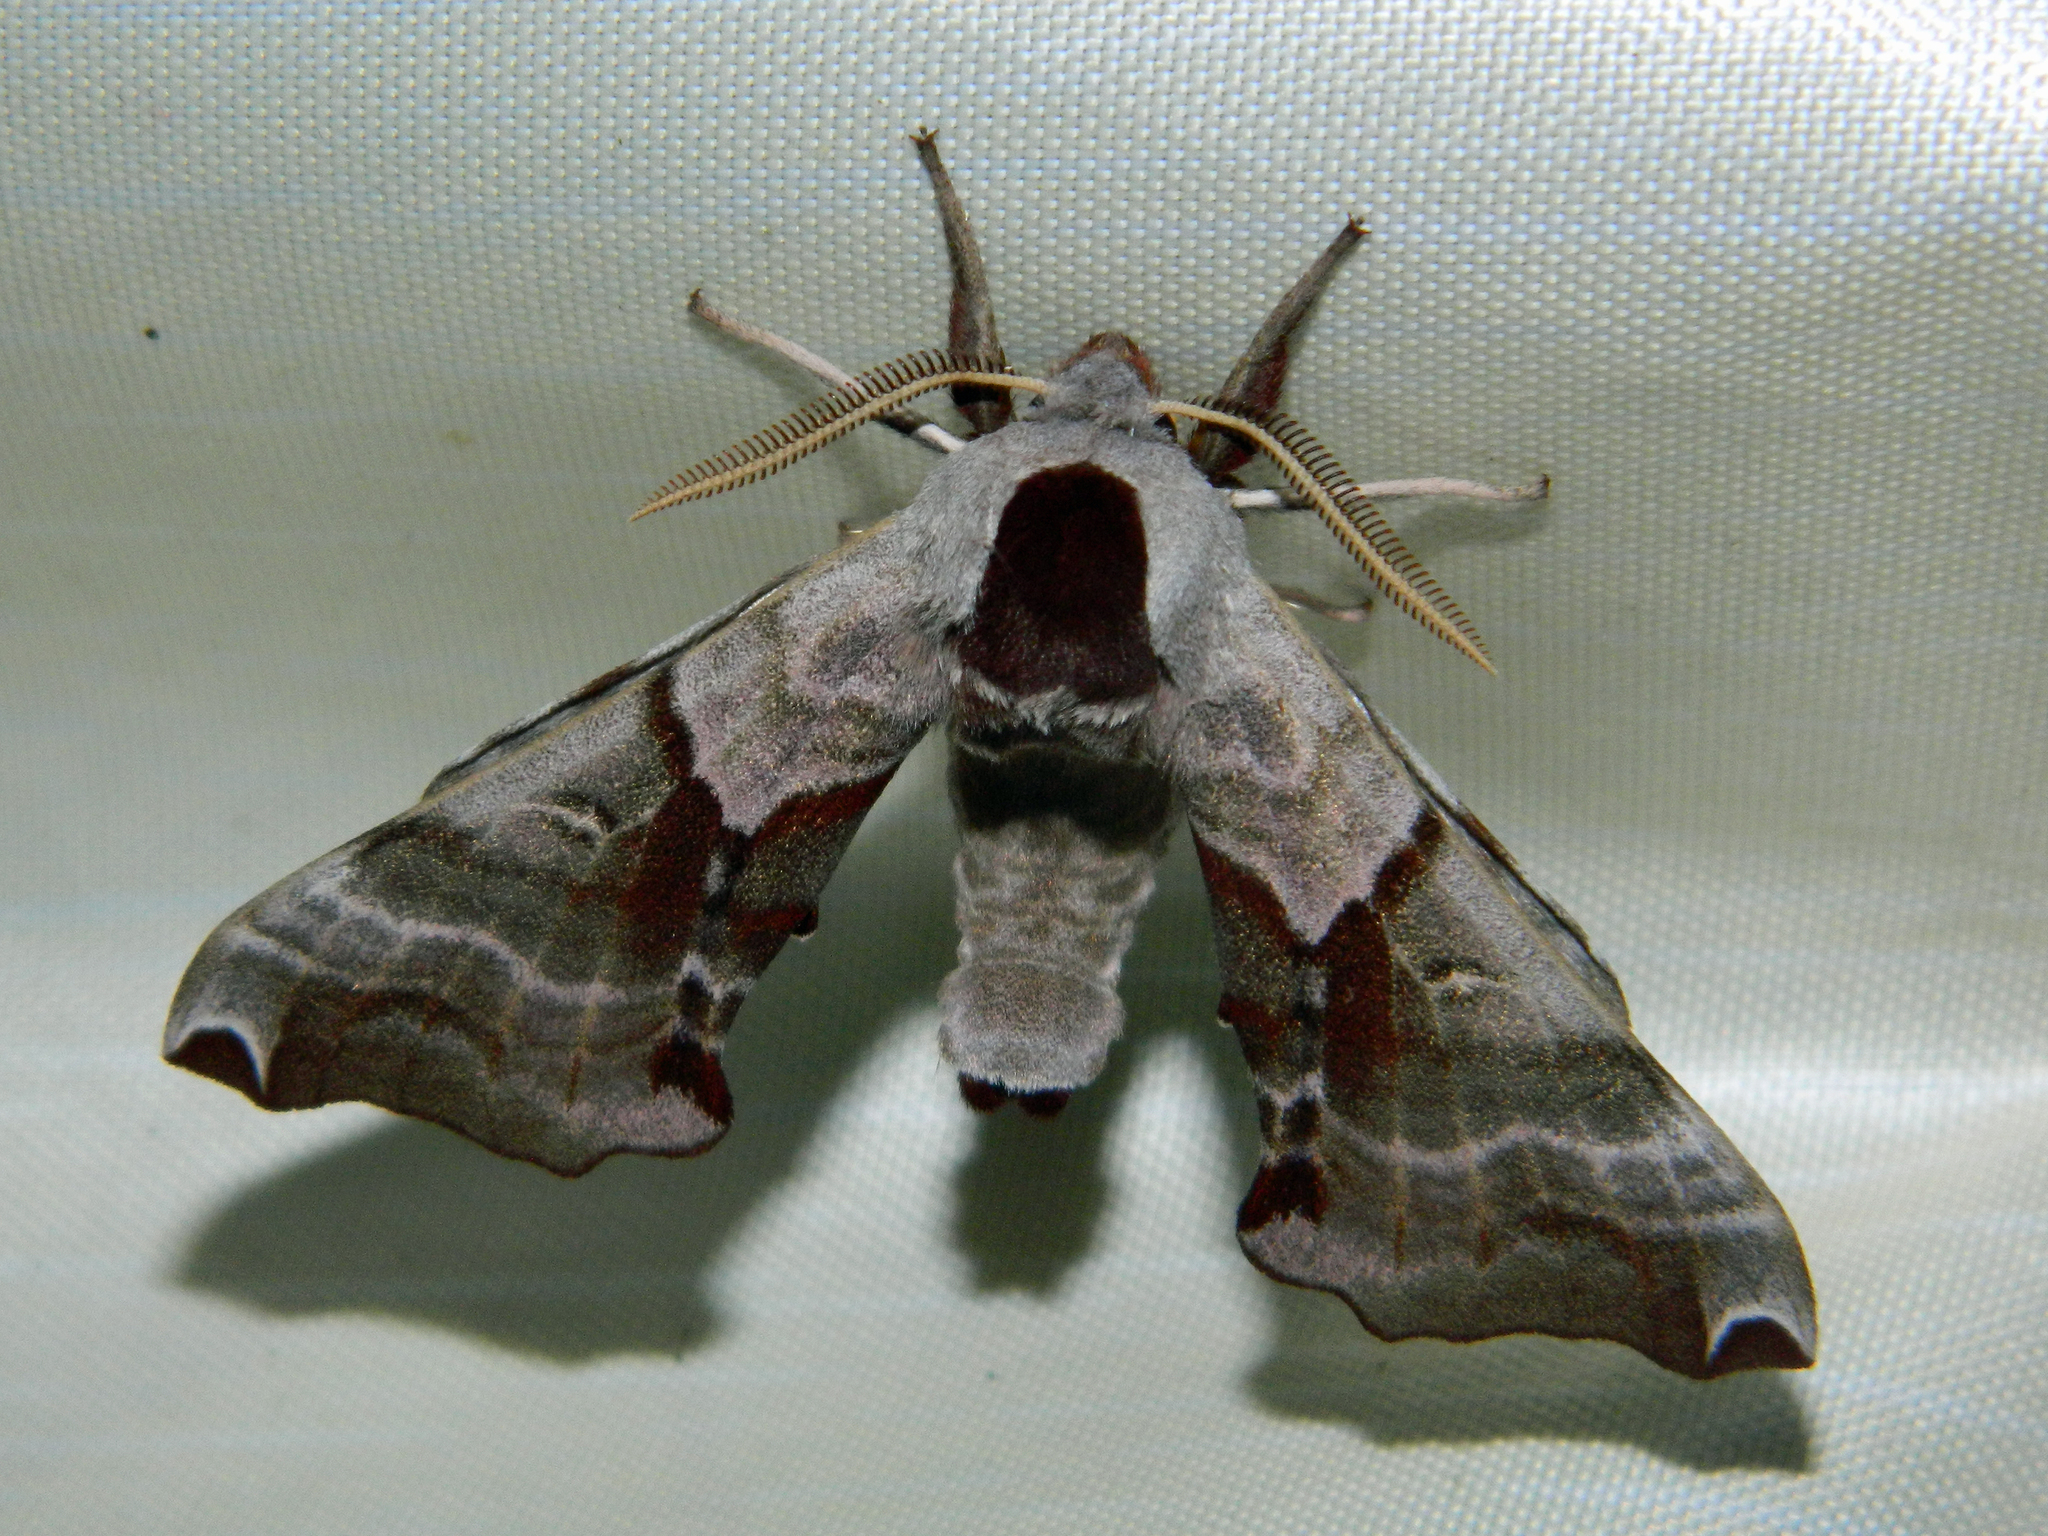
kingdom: Animalia
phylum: Arthropoda
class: Insecta
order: Lepidoptera
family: Sphingidae
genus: Smerinthus
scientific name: Smerinthus jamaicensis
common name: Twin spotted sphinx
